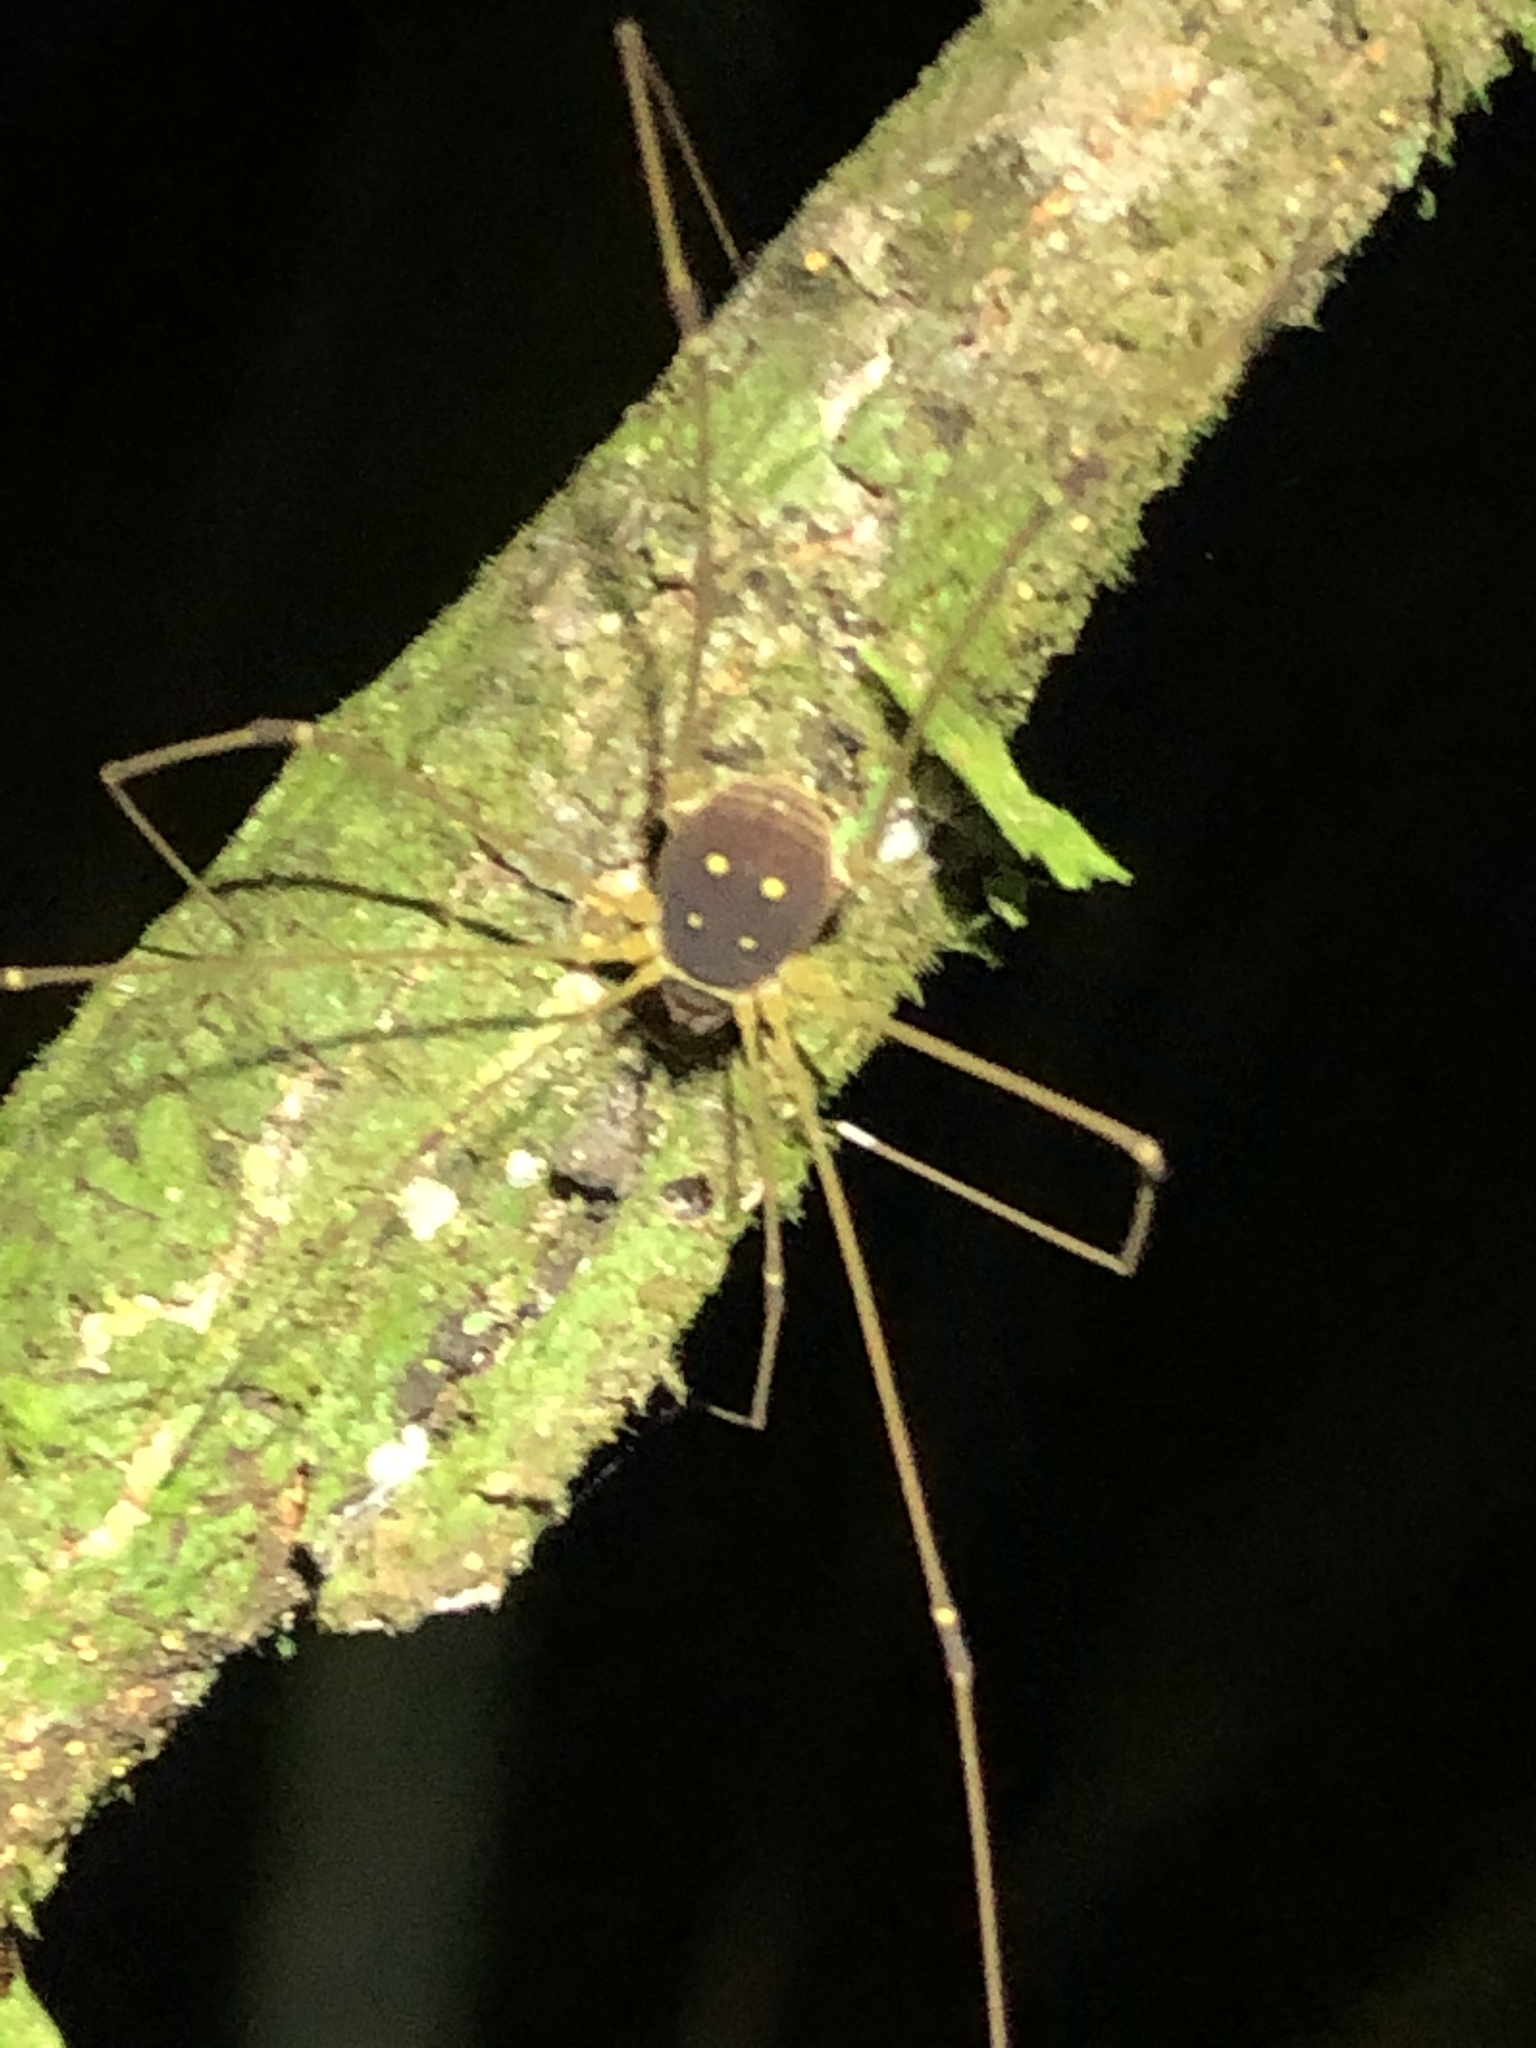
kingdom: Animalia
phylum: Arthropoda
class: Arachnida
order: Opiliones
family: Cosmetidae
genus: Protus
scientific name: Protus bolivari
